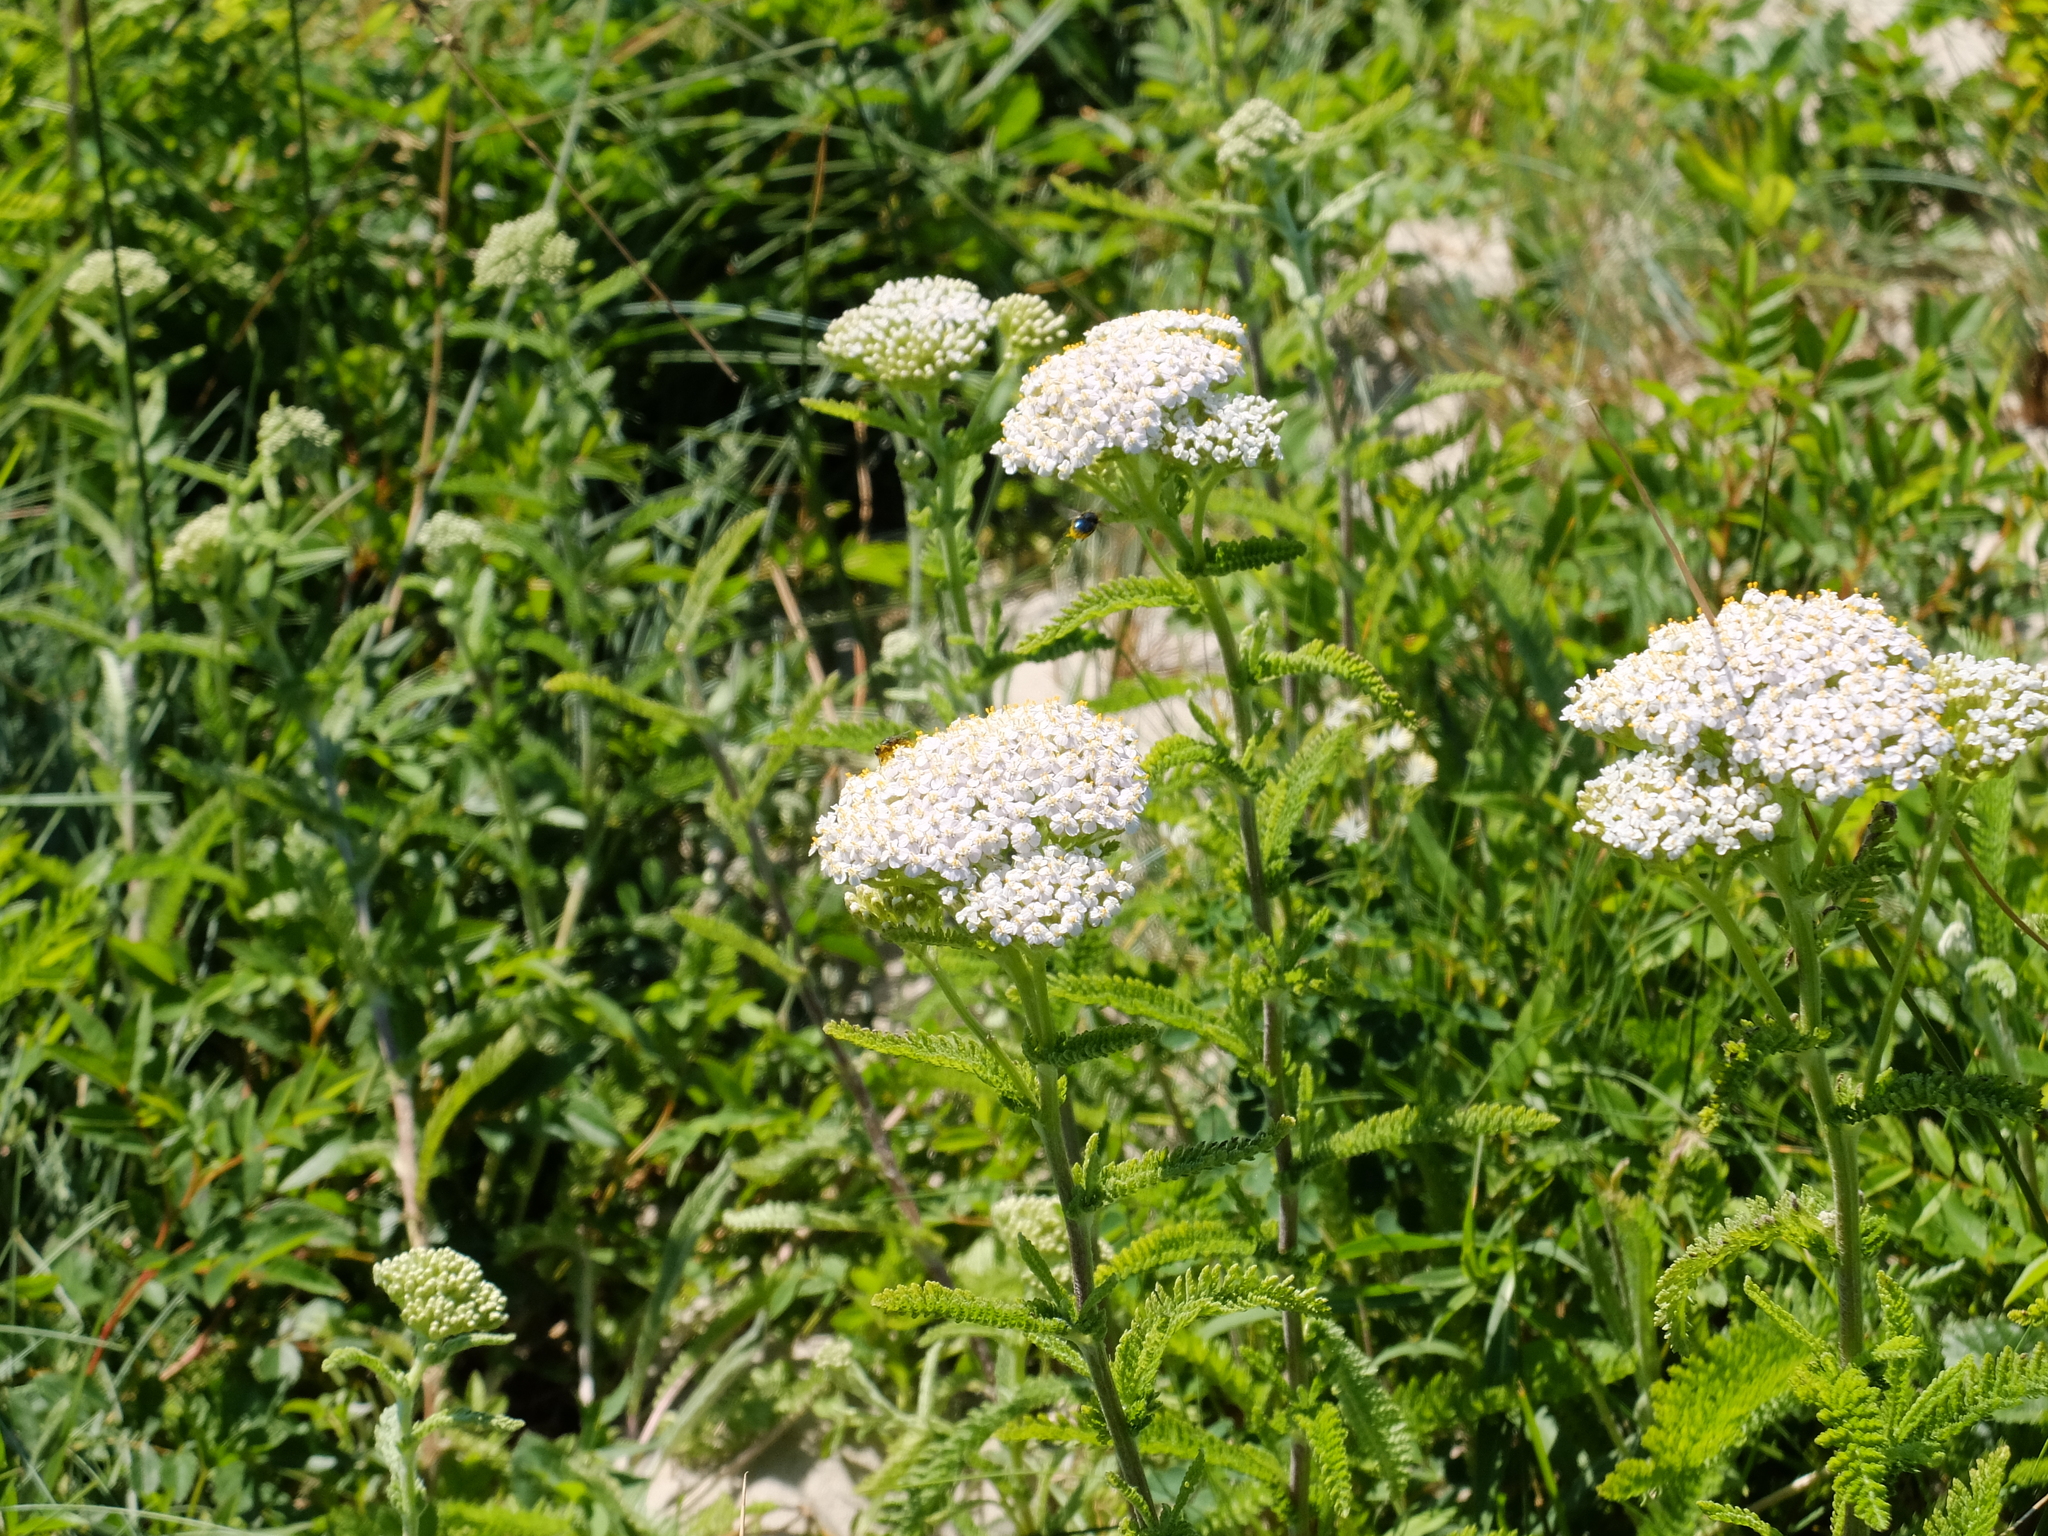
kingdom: Plantae
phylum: Tracheophyta
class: Magnoliopsida
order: Asterales
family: Asteraceae
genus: Achillea
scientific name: Achillea millefolium
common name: Yarrow
